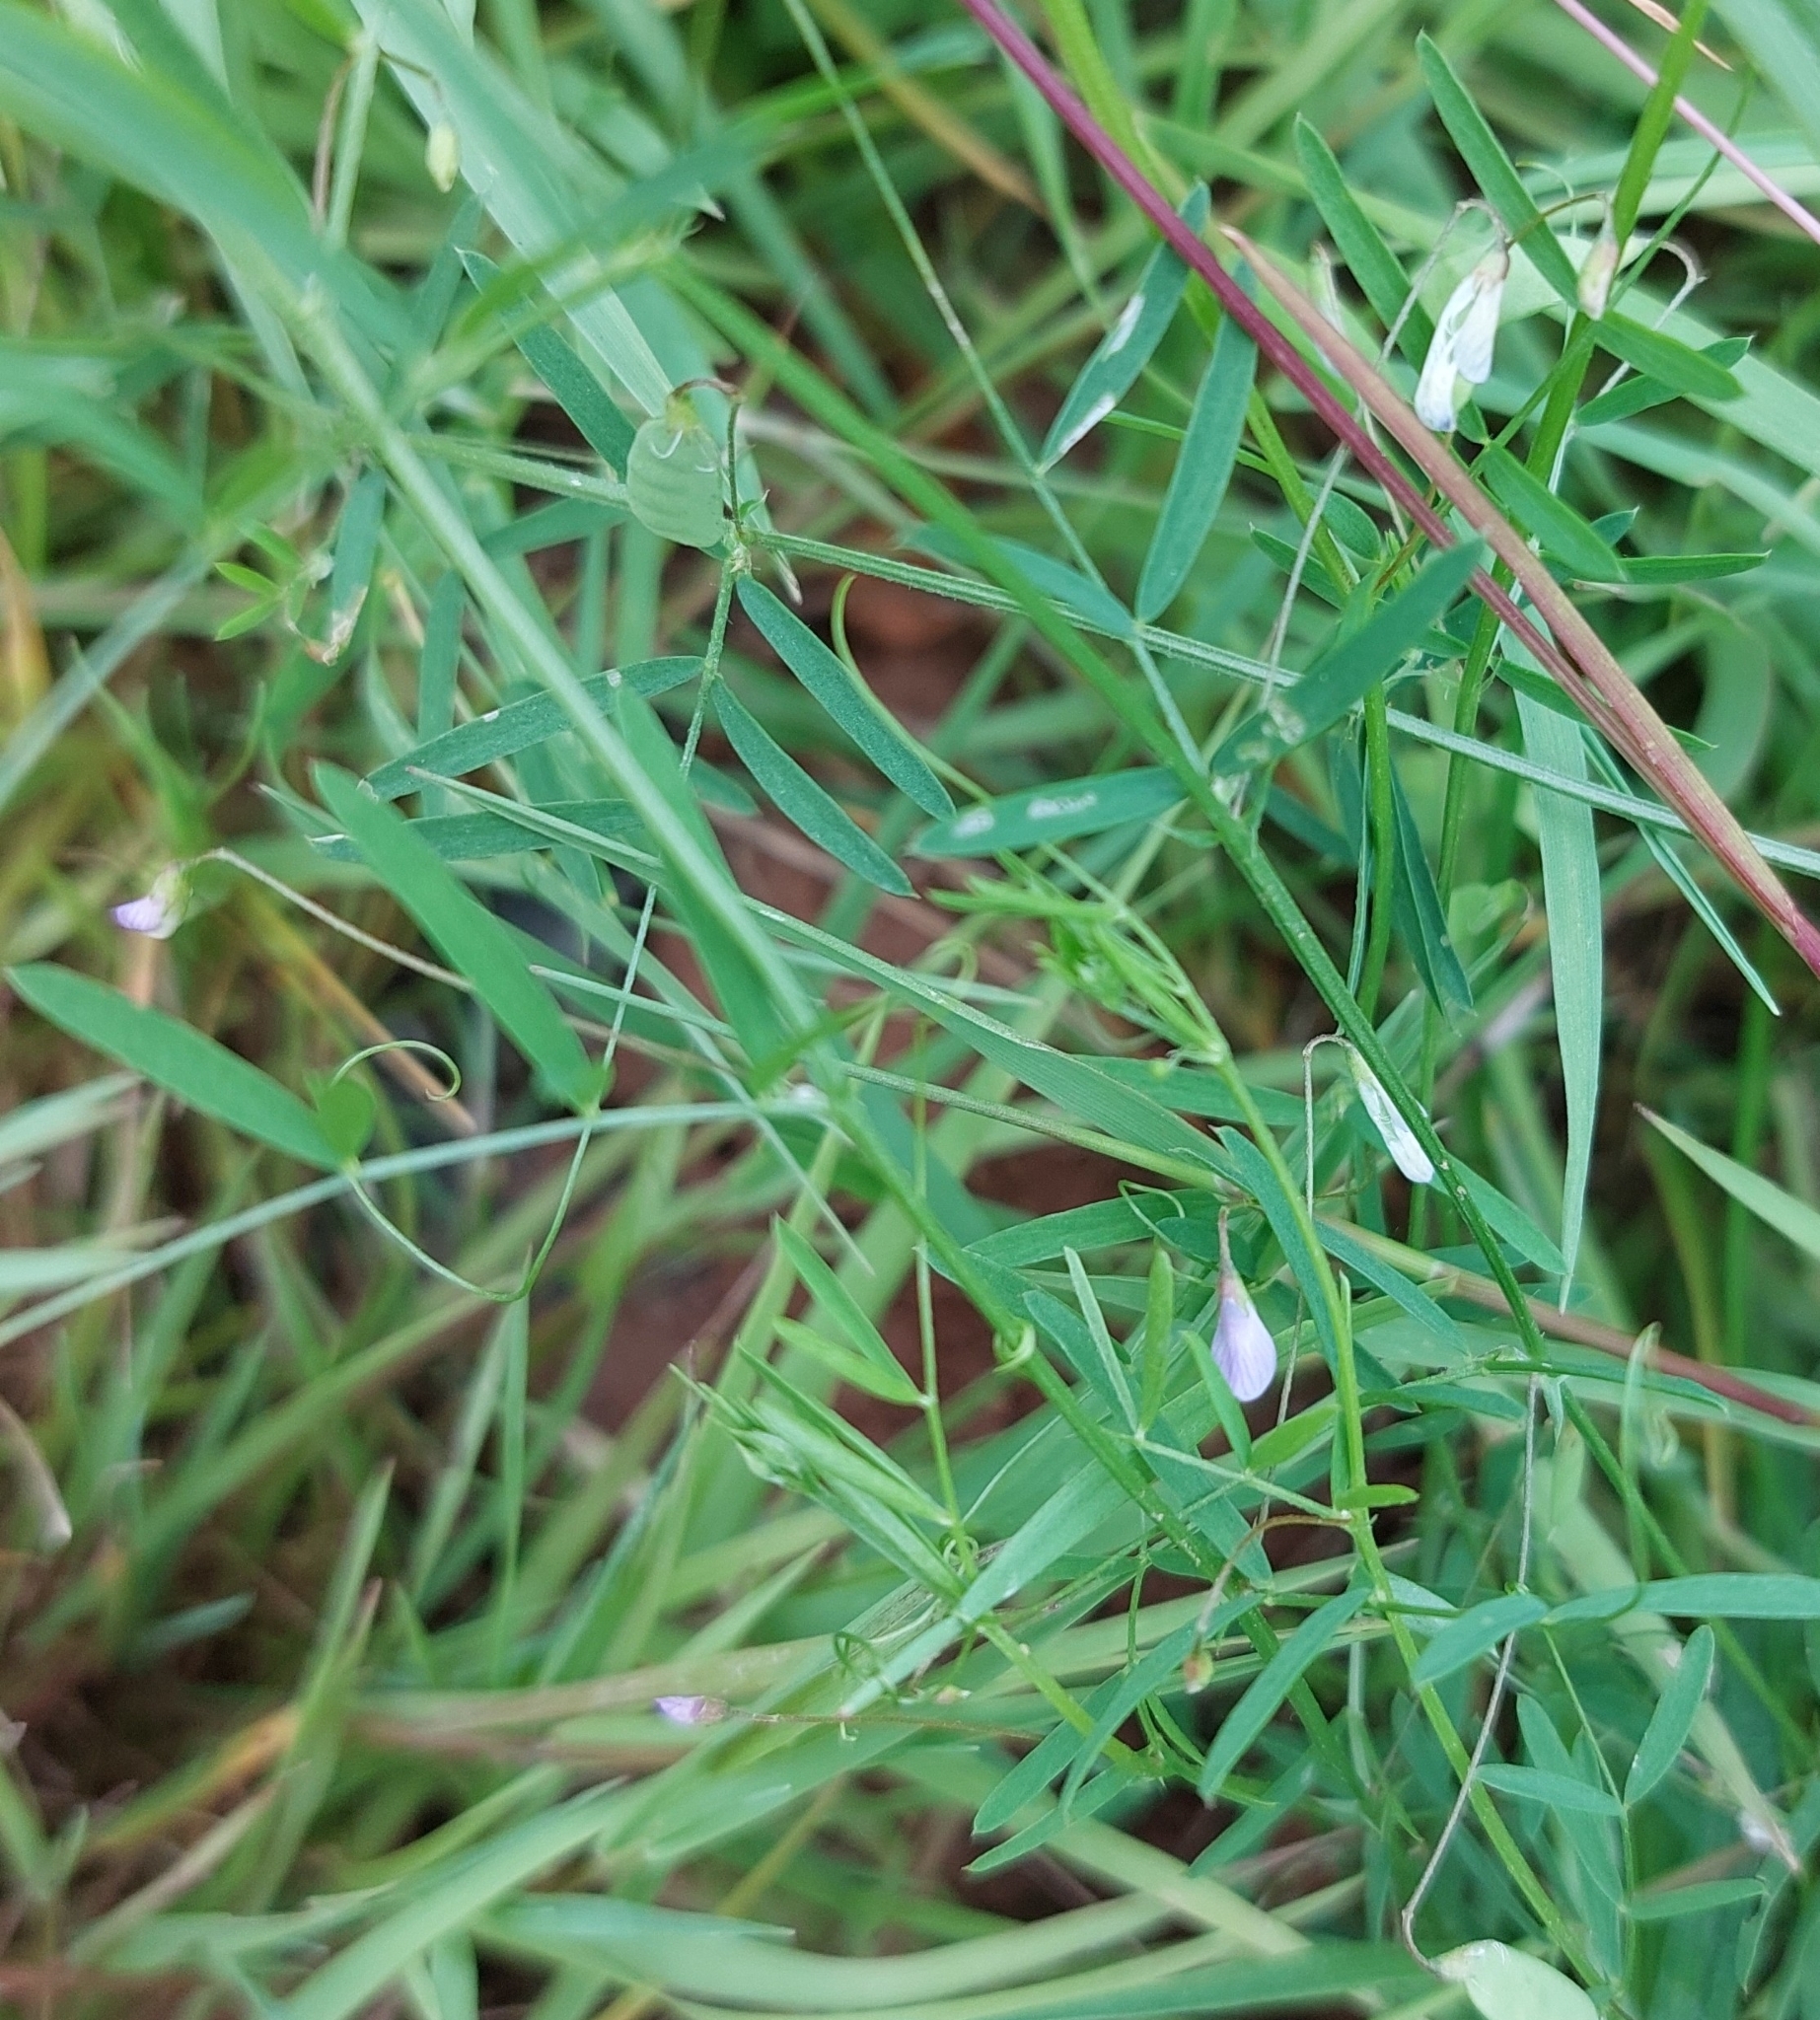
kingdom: Plantae
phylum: Tracheophyta
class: Magnoliopsida
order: Fabales
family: Fabaceae
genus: Vicia
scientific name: Vicia tetrasperma
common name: Smooth tare
